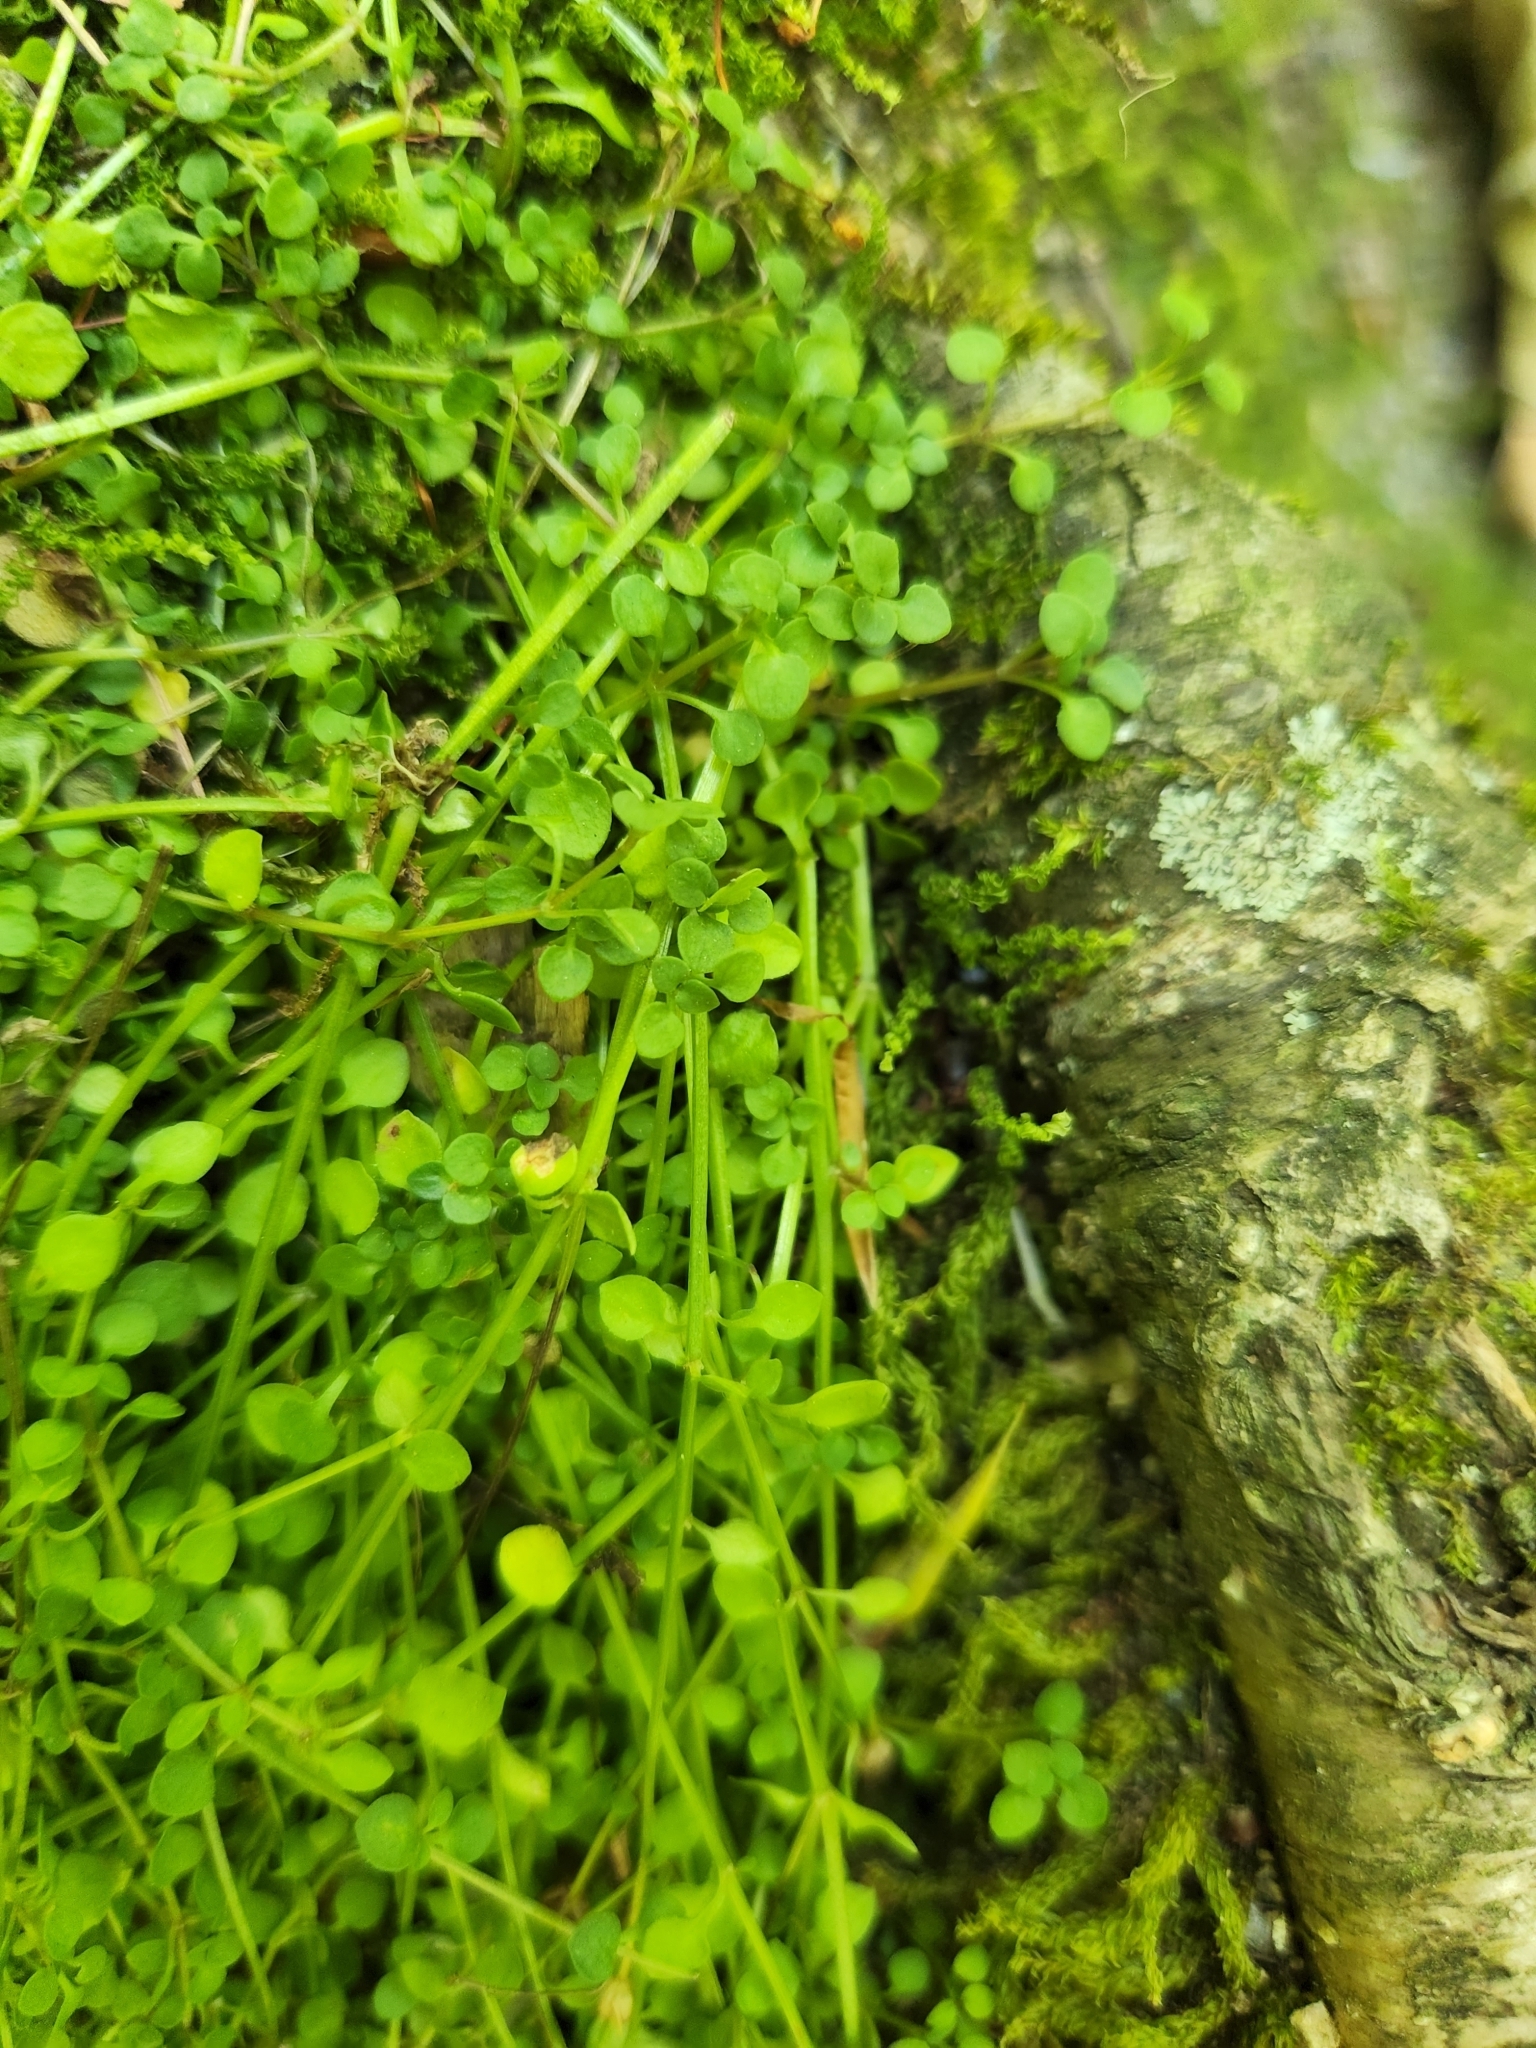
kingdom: Plantae
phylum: Tracheophyta
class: Magnoliopsida
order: Gentianales
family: Rubiaceae
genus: Houstonia
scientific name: Houstonia serpyllifolia
